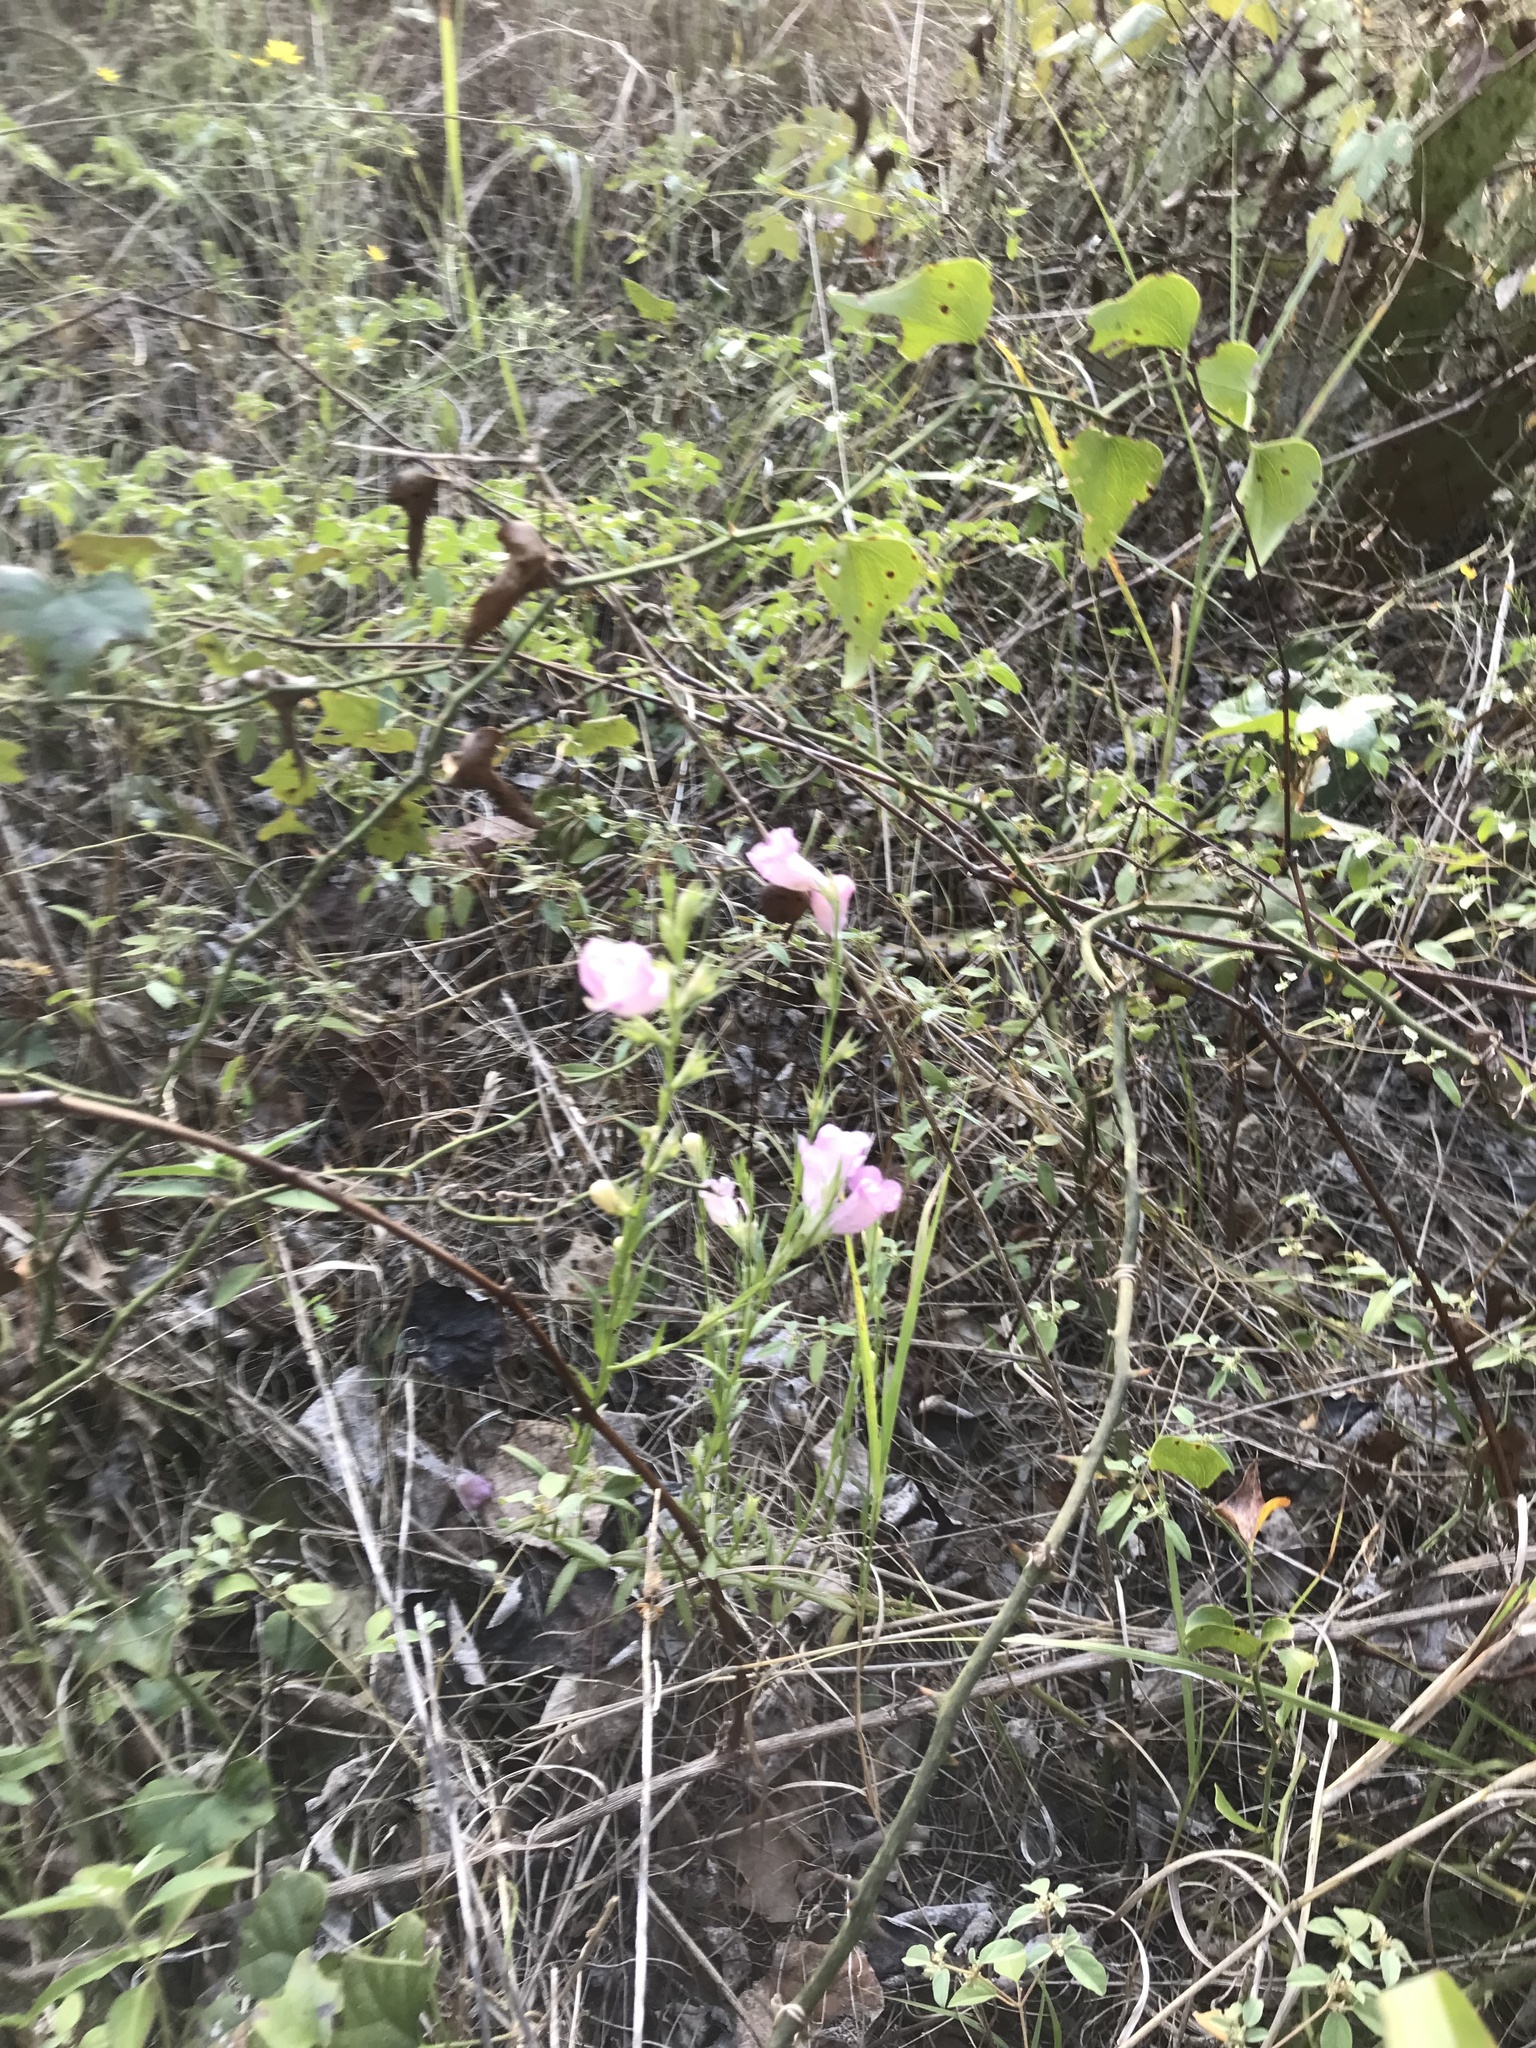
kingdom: Plantae
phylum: Tracheophyta
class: Magnoliopsida
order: Lamiales
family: Orobanchaceae
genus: Agalinis
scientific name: Agalinis heterophylla
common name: Prairie agalinis
